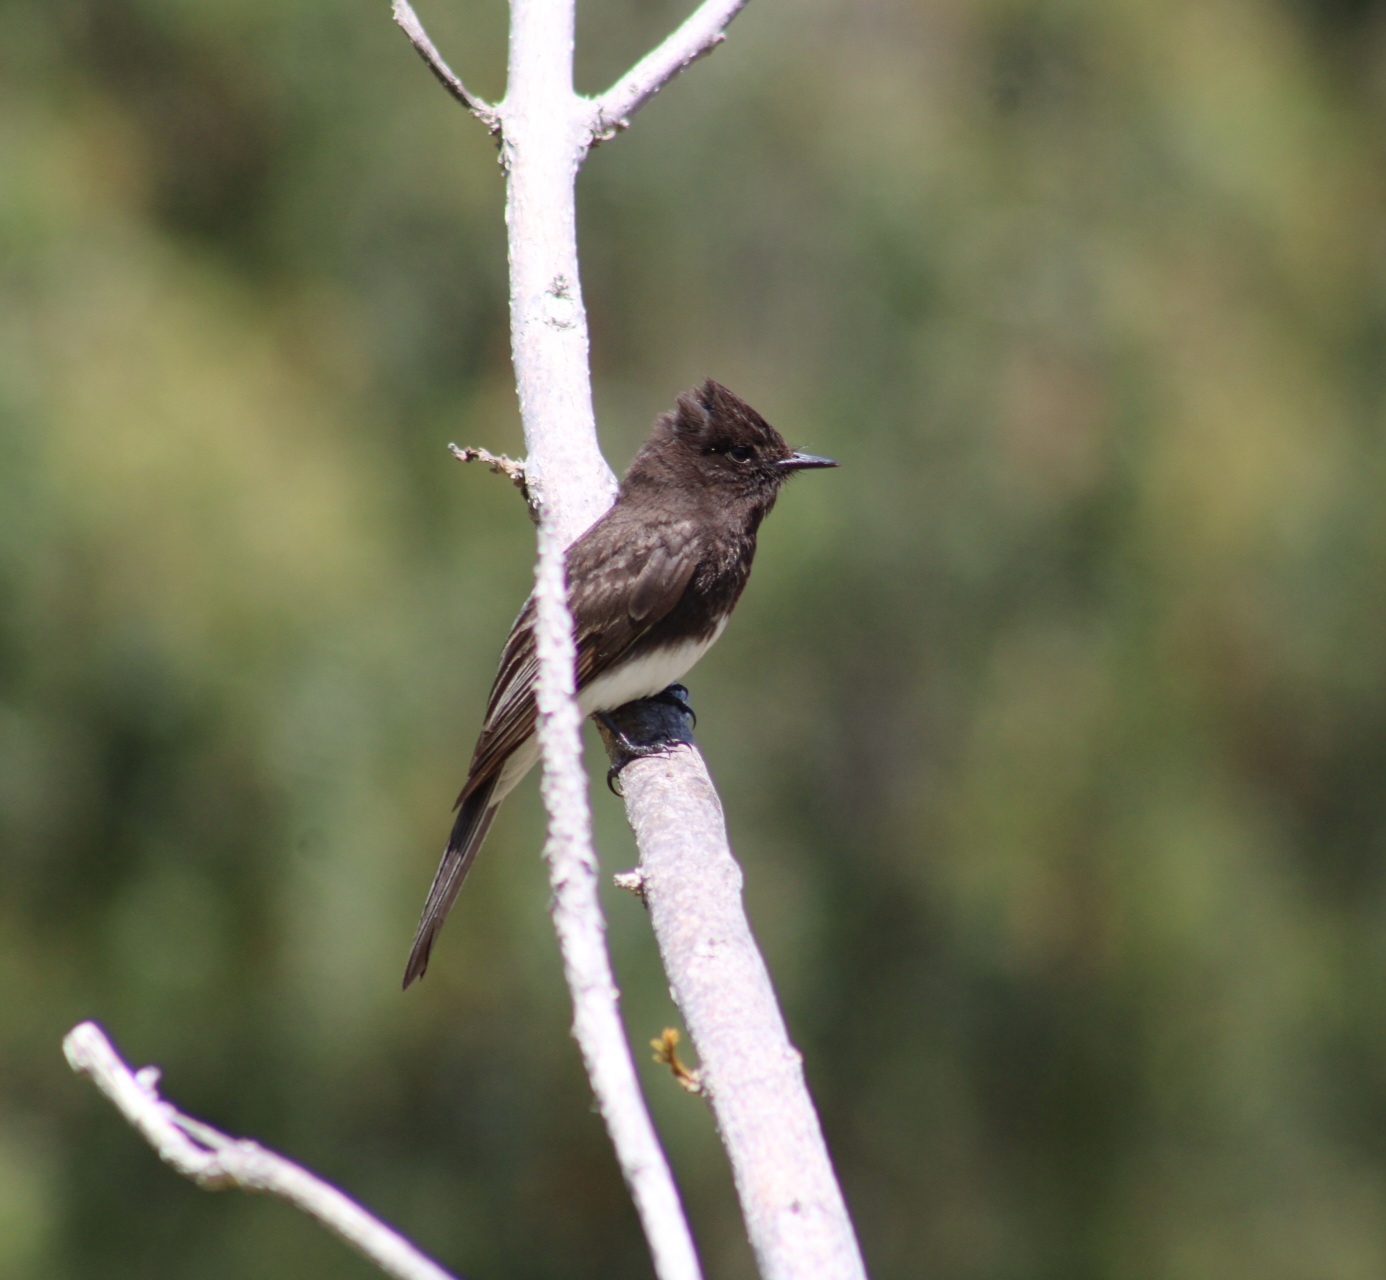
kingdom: Animalia
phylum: Chordata
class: Aves
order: Passeriformes
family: Tyrannidae
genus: Sayornis
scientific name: Sayornis nigricans
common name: Black phoebe
